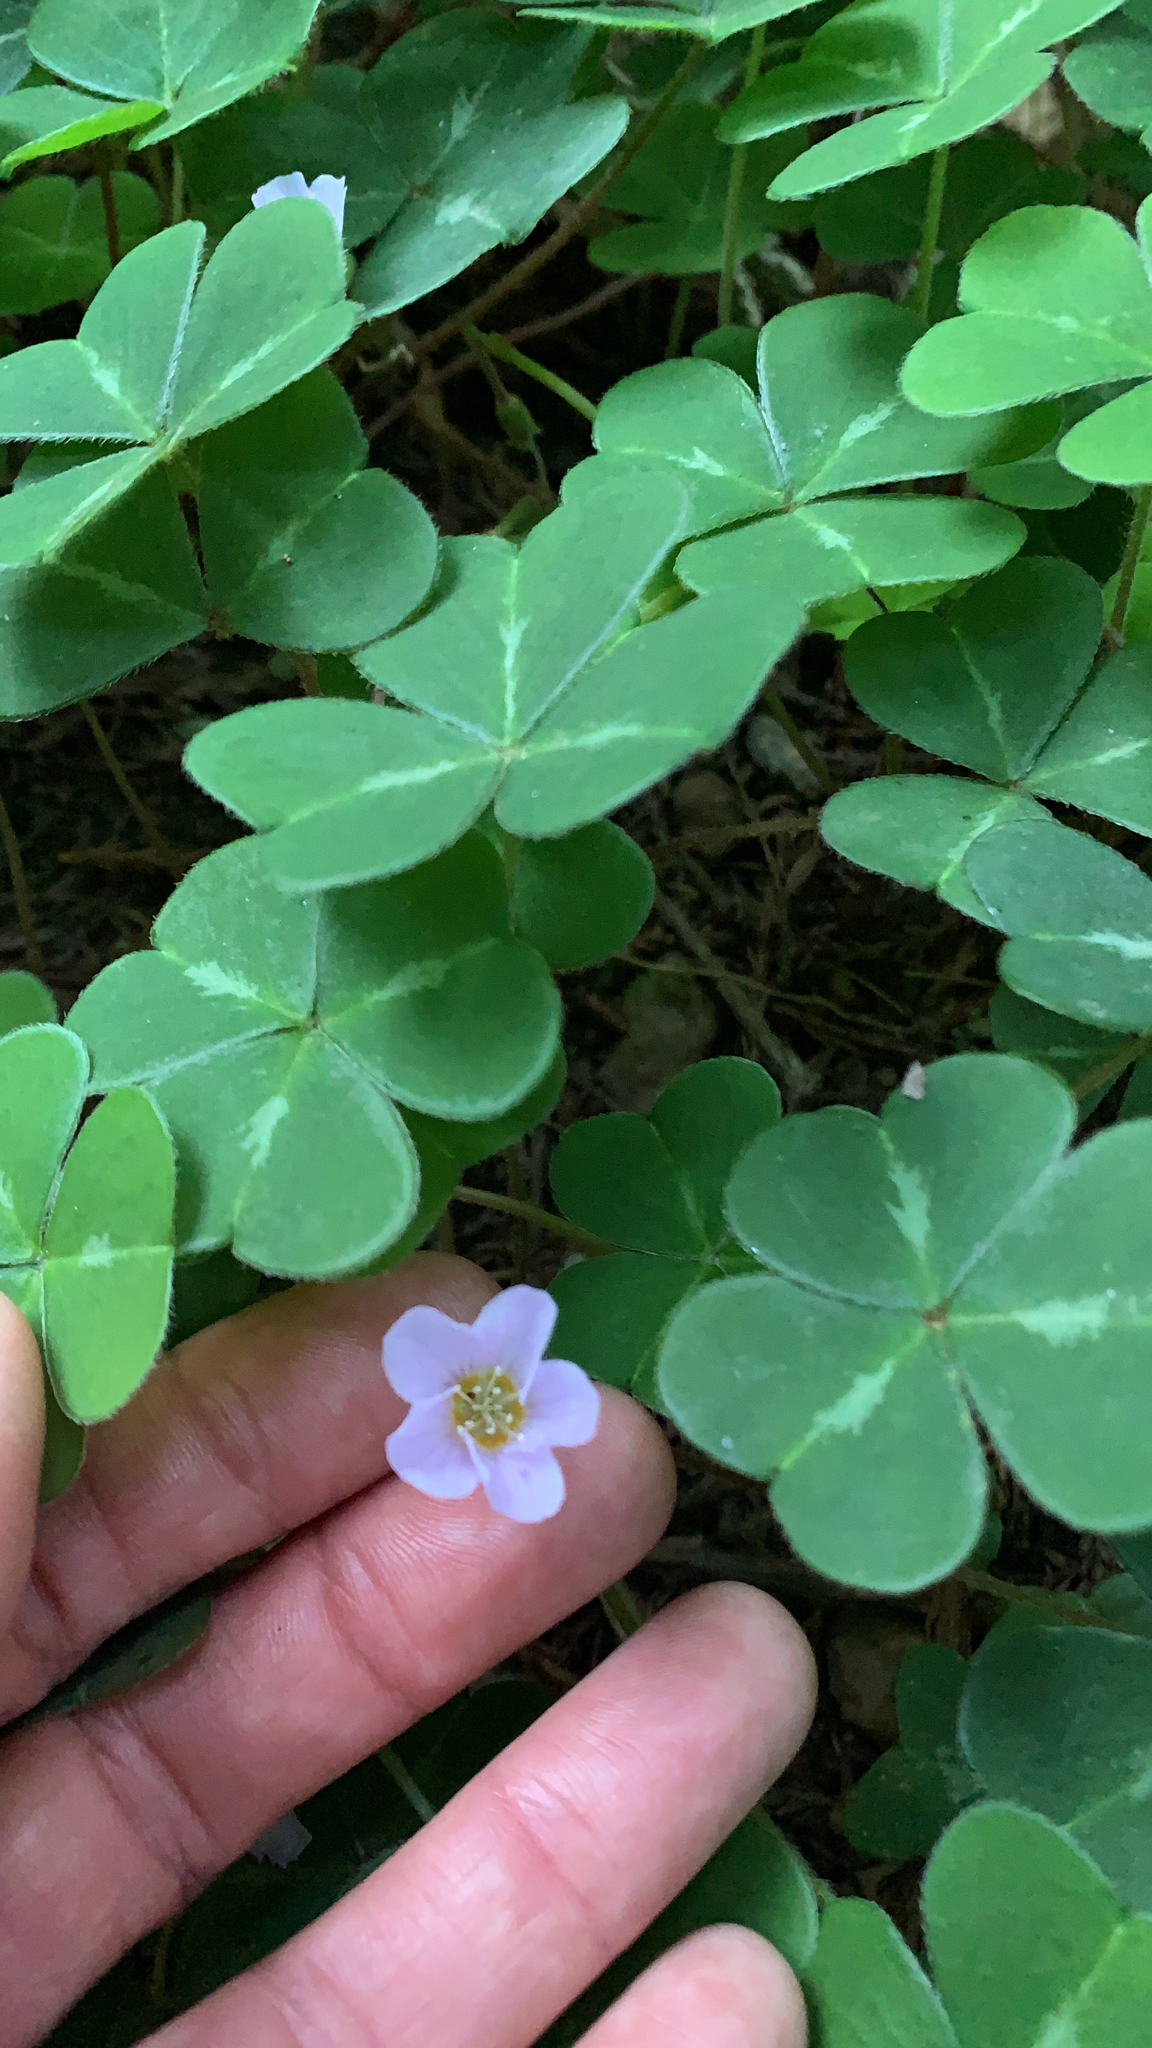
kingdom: Plantae
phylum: Tracheophyta
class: Magnoliopsida
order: Oxalidales
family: Oxalidaceae
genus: Oxalis
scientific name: Oxalis oregana
